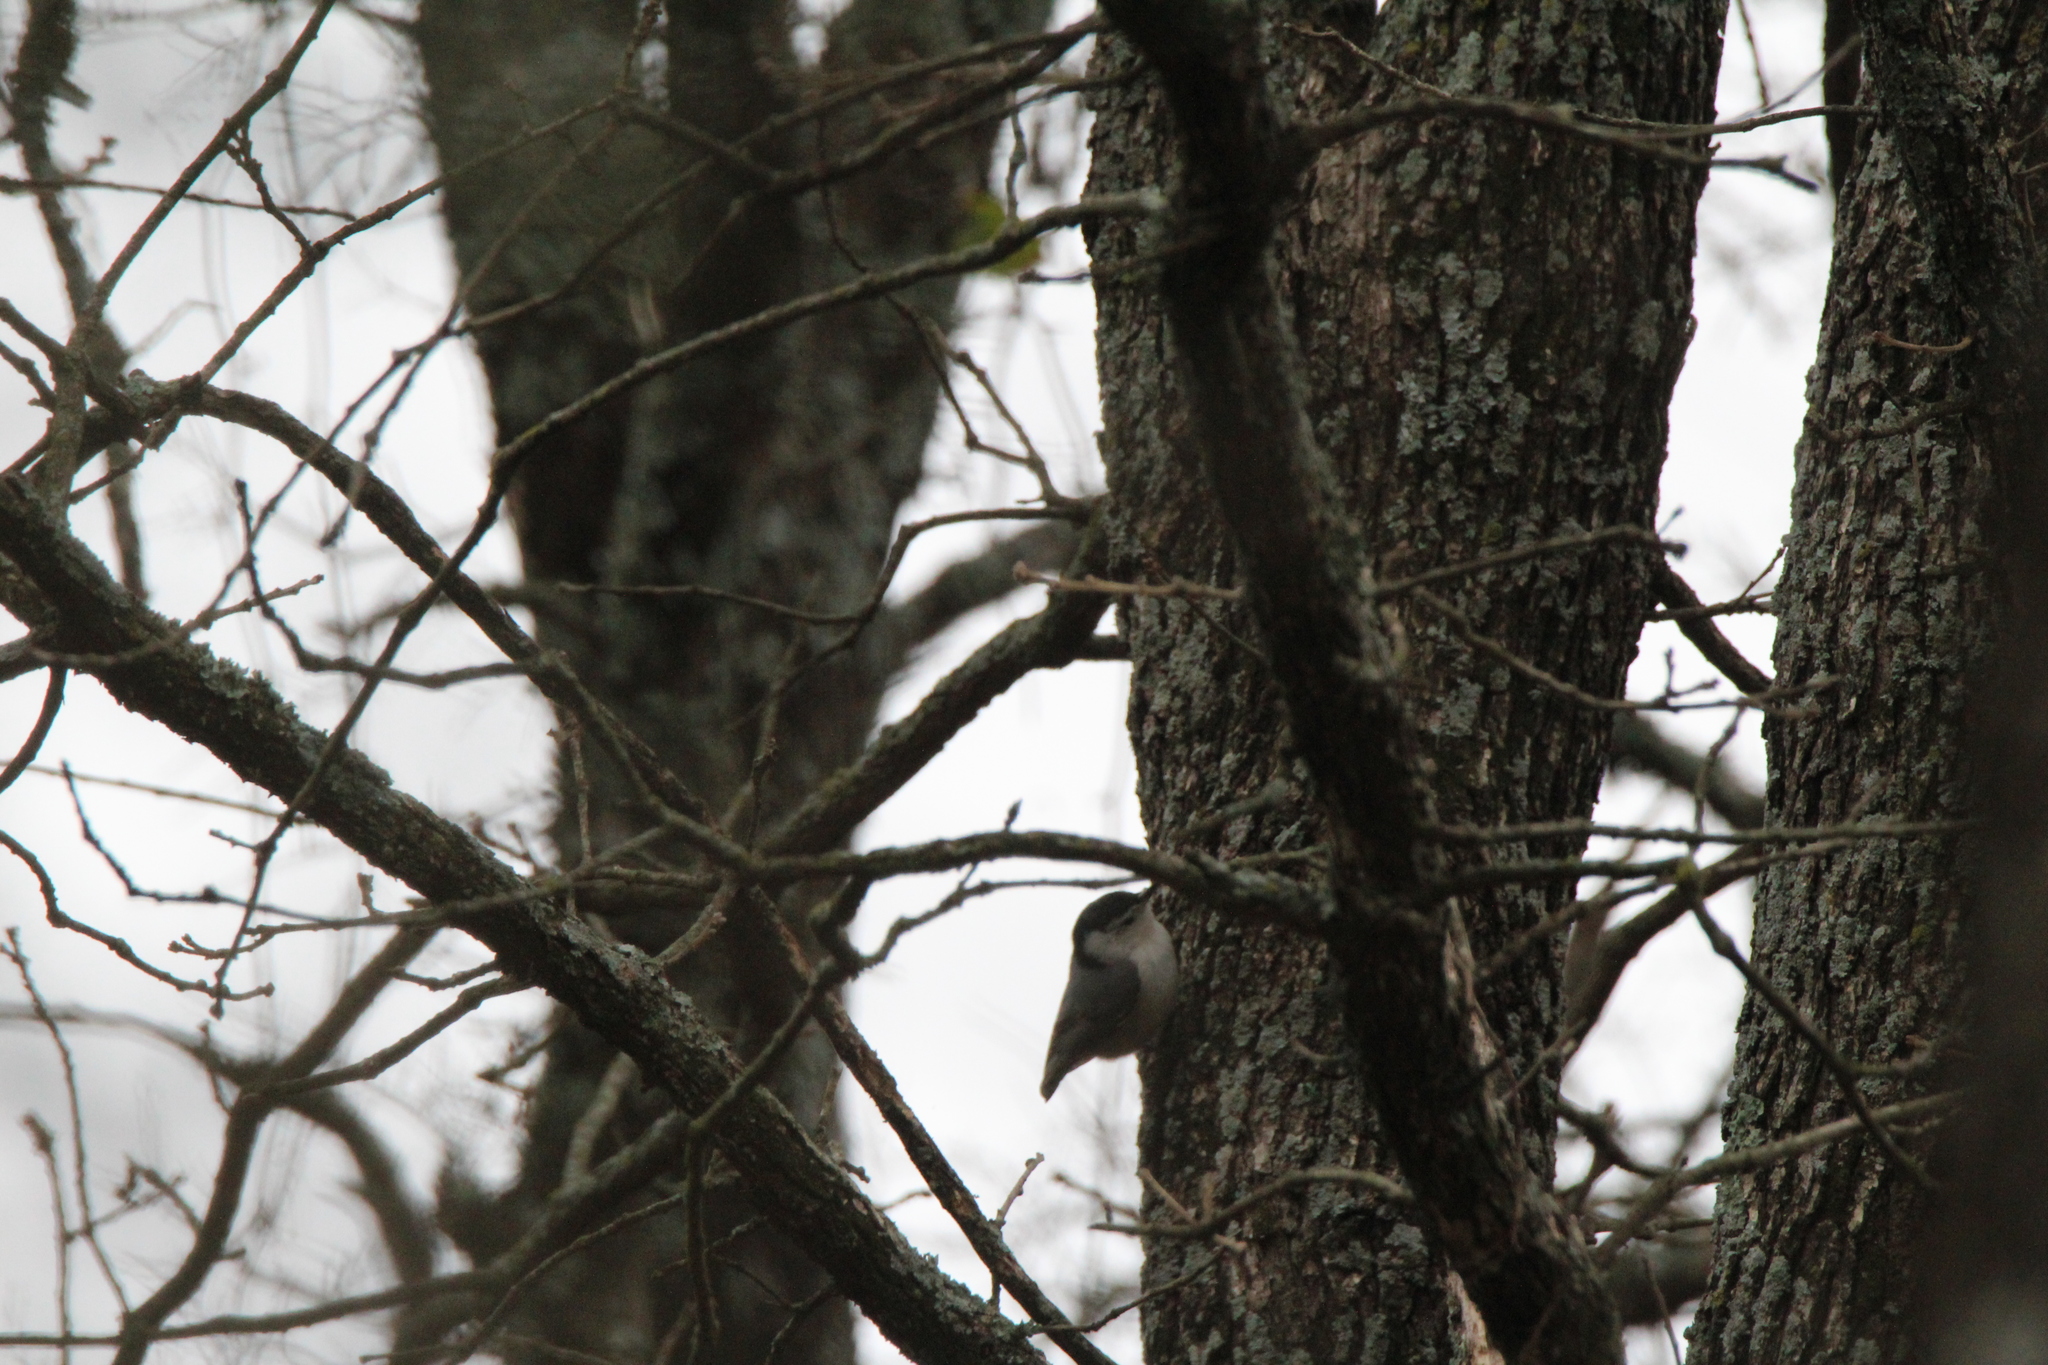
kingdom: Animalia
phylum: Chordata
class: Aves
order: Passeriformes
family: Sittidae
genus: Sitta
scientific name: Sitta carolinensis
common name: White-breasted nuthatch
